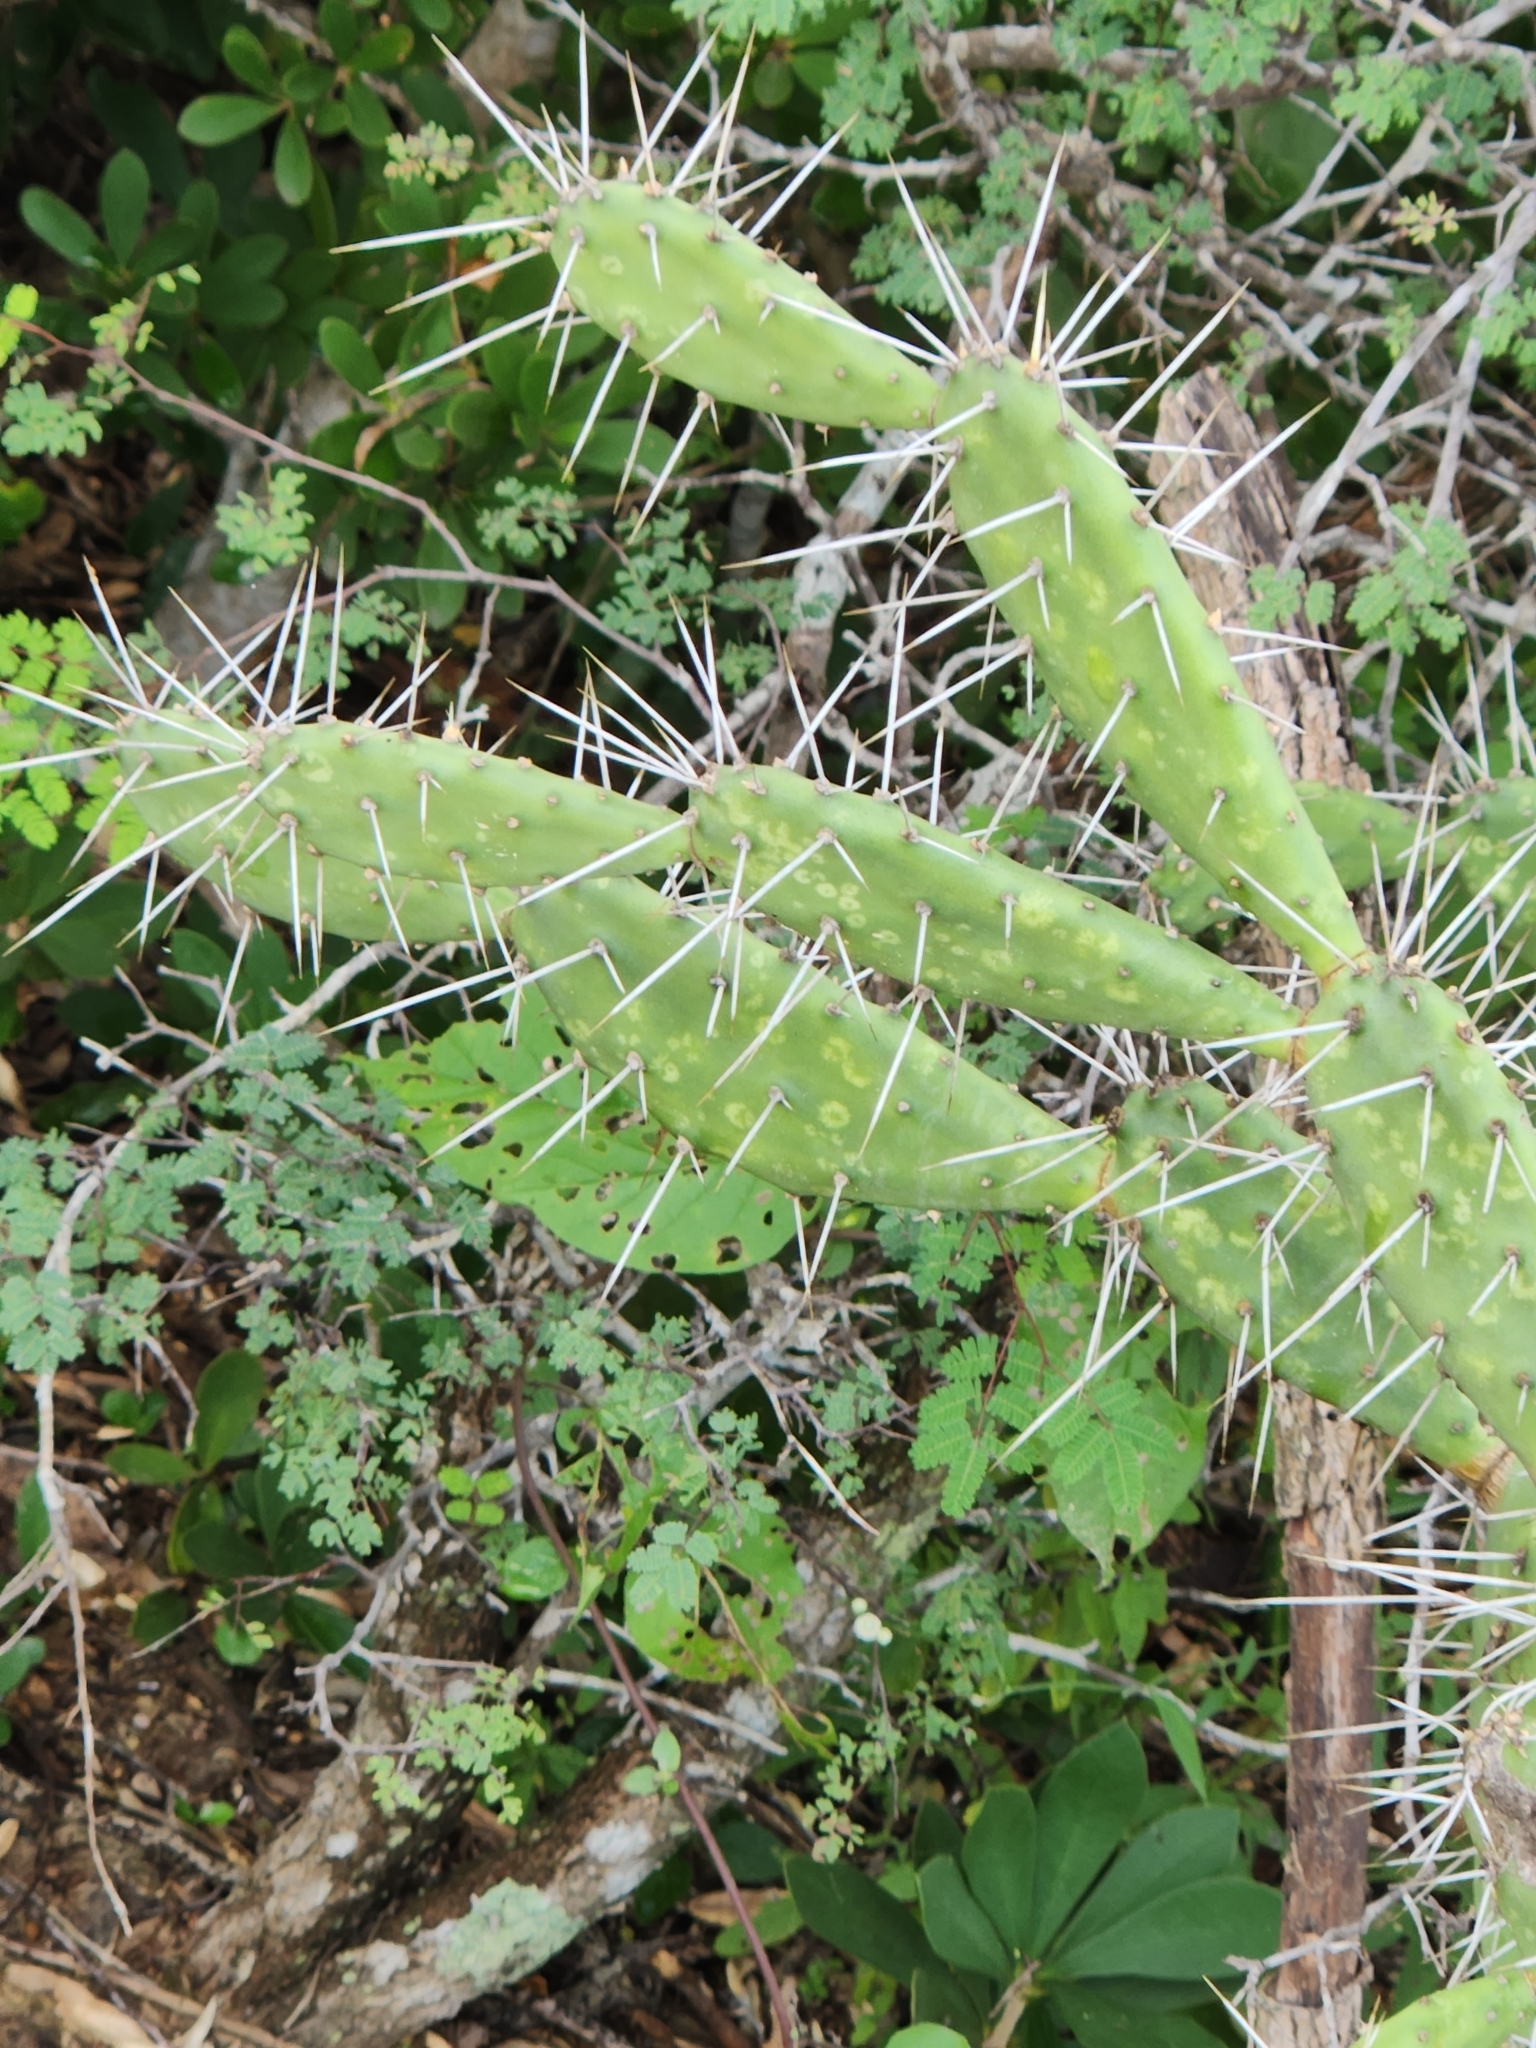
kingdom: Plantae
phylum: Tracheophyta
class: Magnoliopsida
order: Caryophyllales
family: Cactaceae
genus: Opuntia
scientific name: Opuntia caracassana
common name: Common prickly pear
